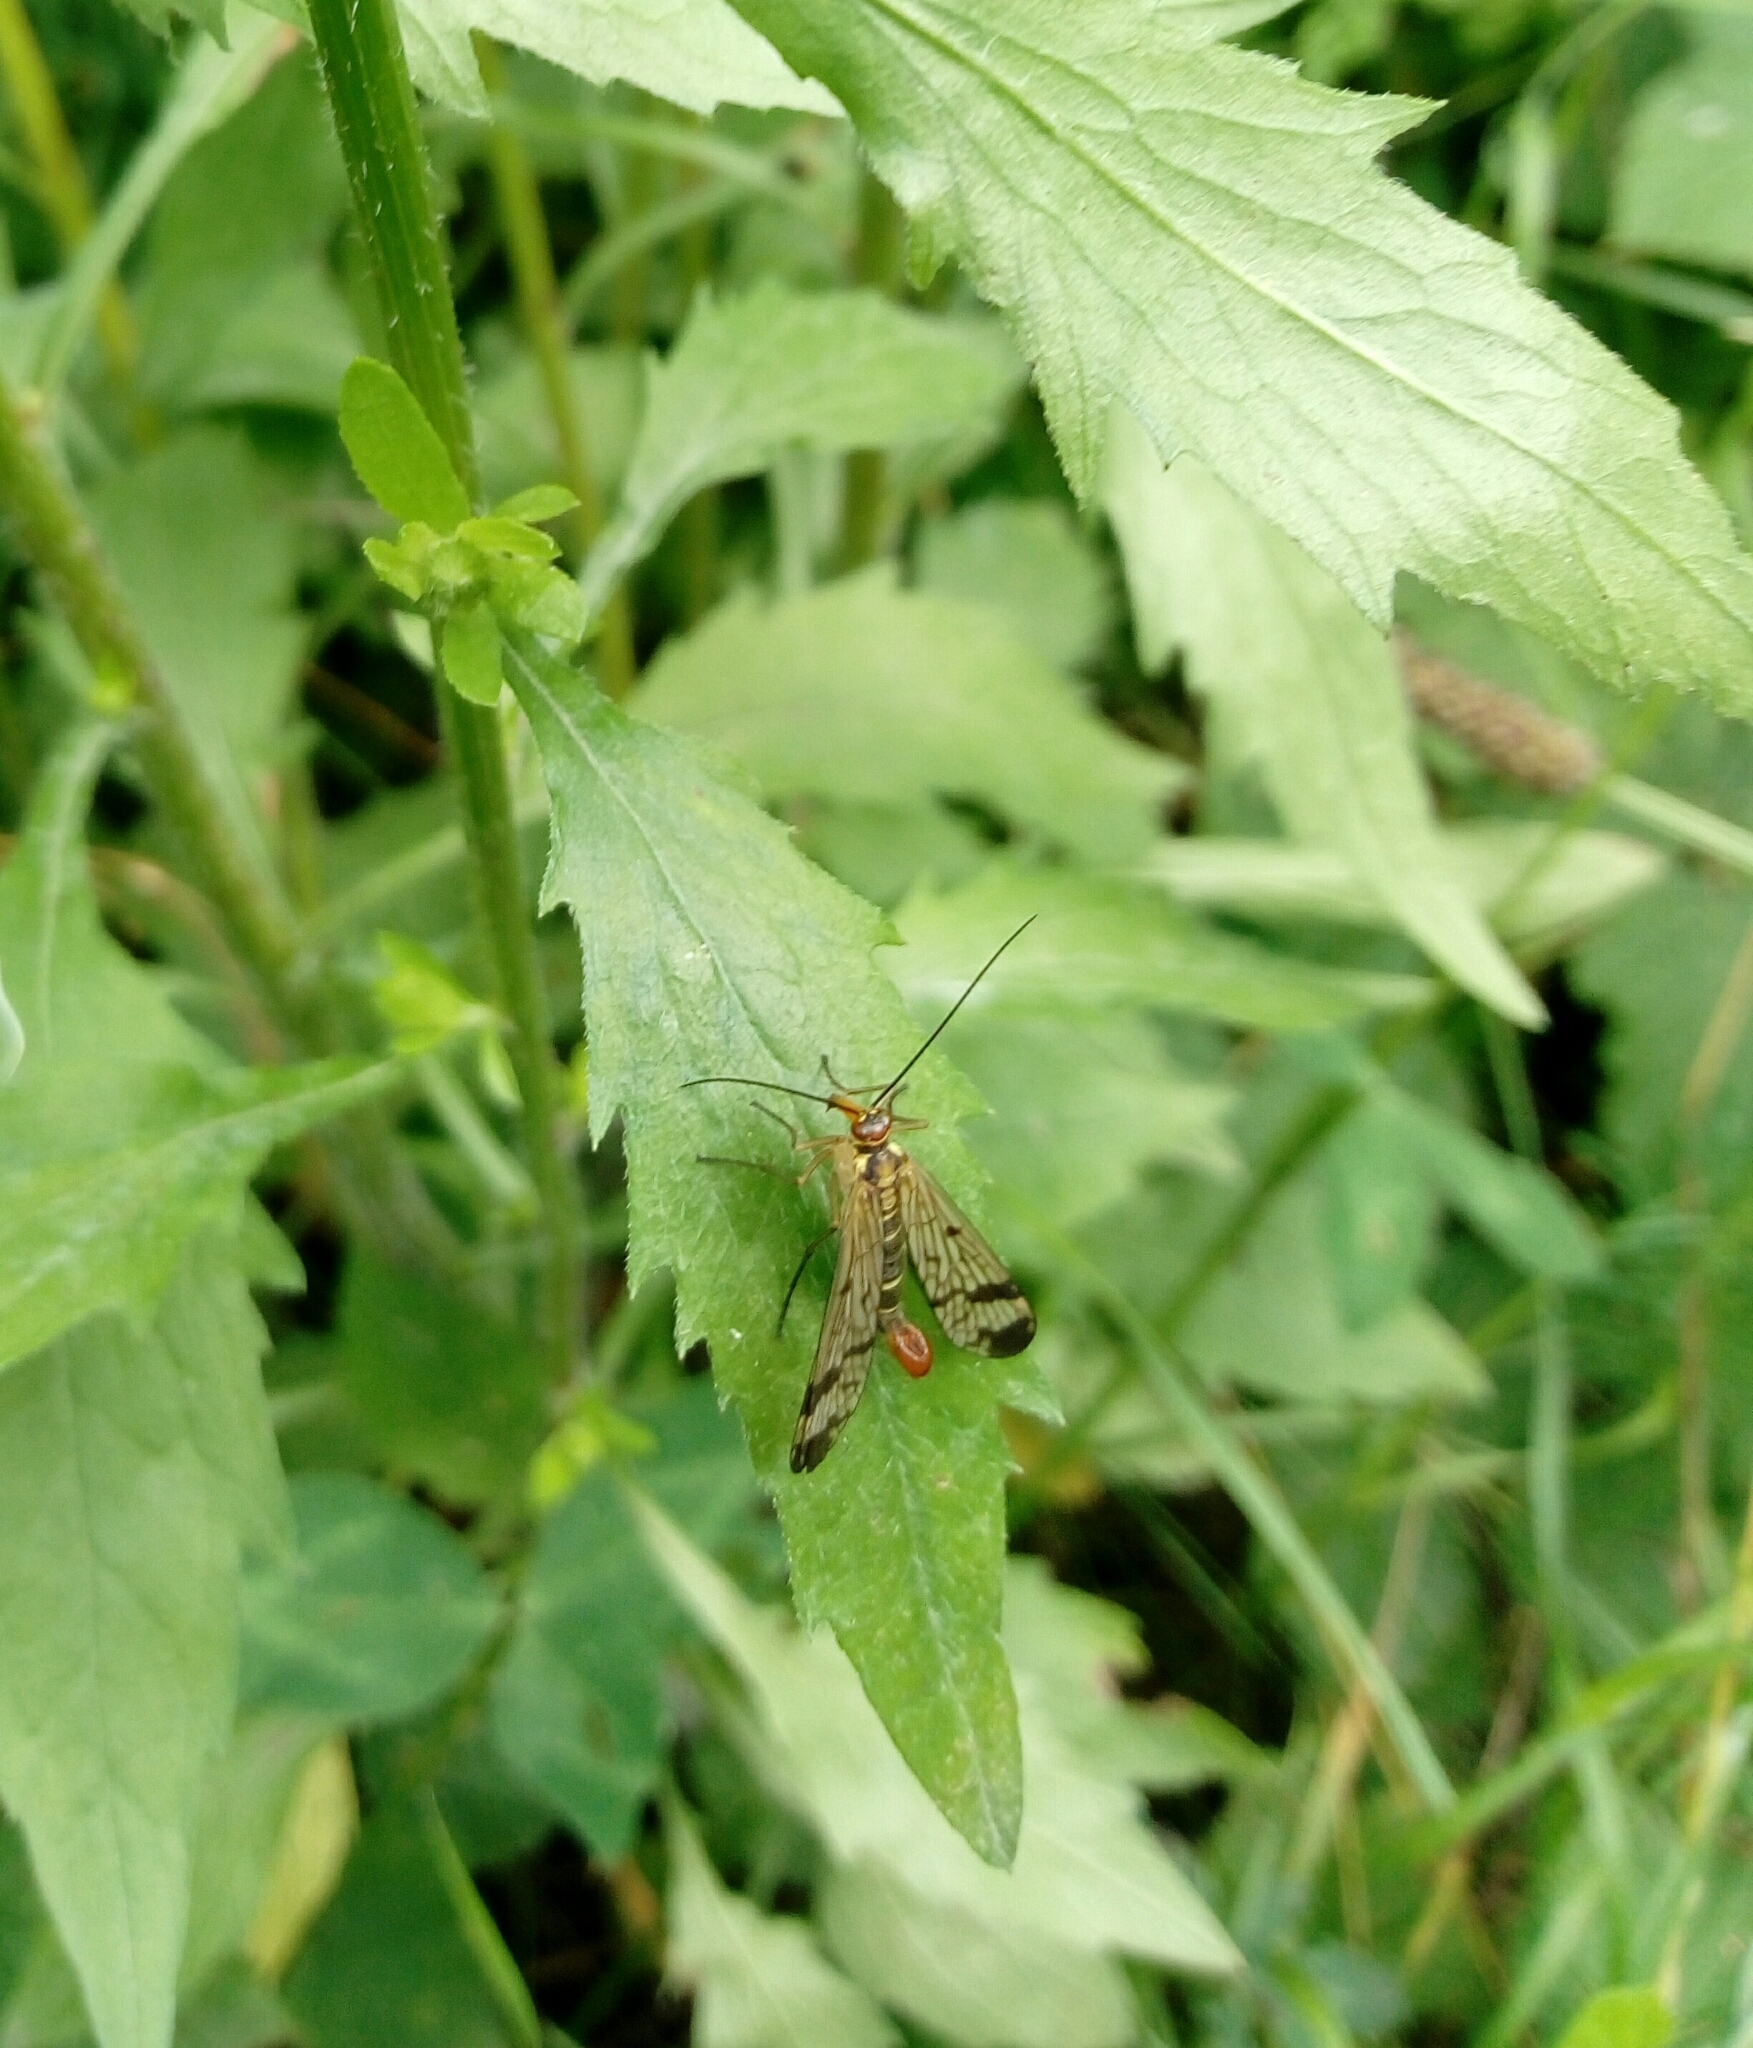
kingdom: Animalia
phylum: Arthropoda
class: Insecta
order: Mecoptera
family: Panorpidae
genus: Panorpa
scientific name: Panorpa communis
